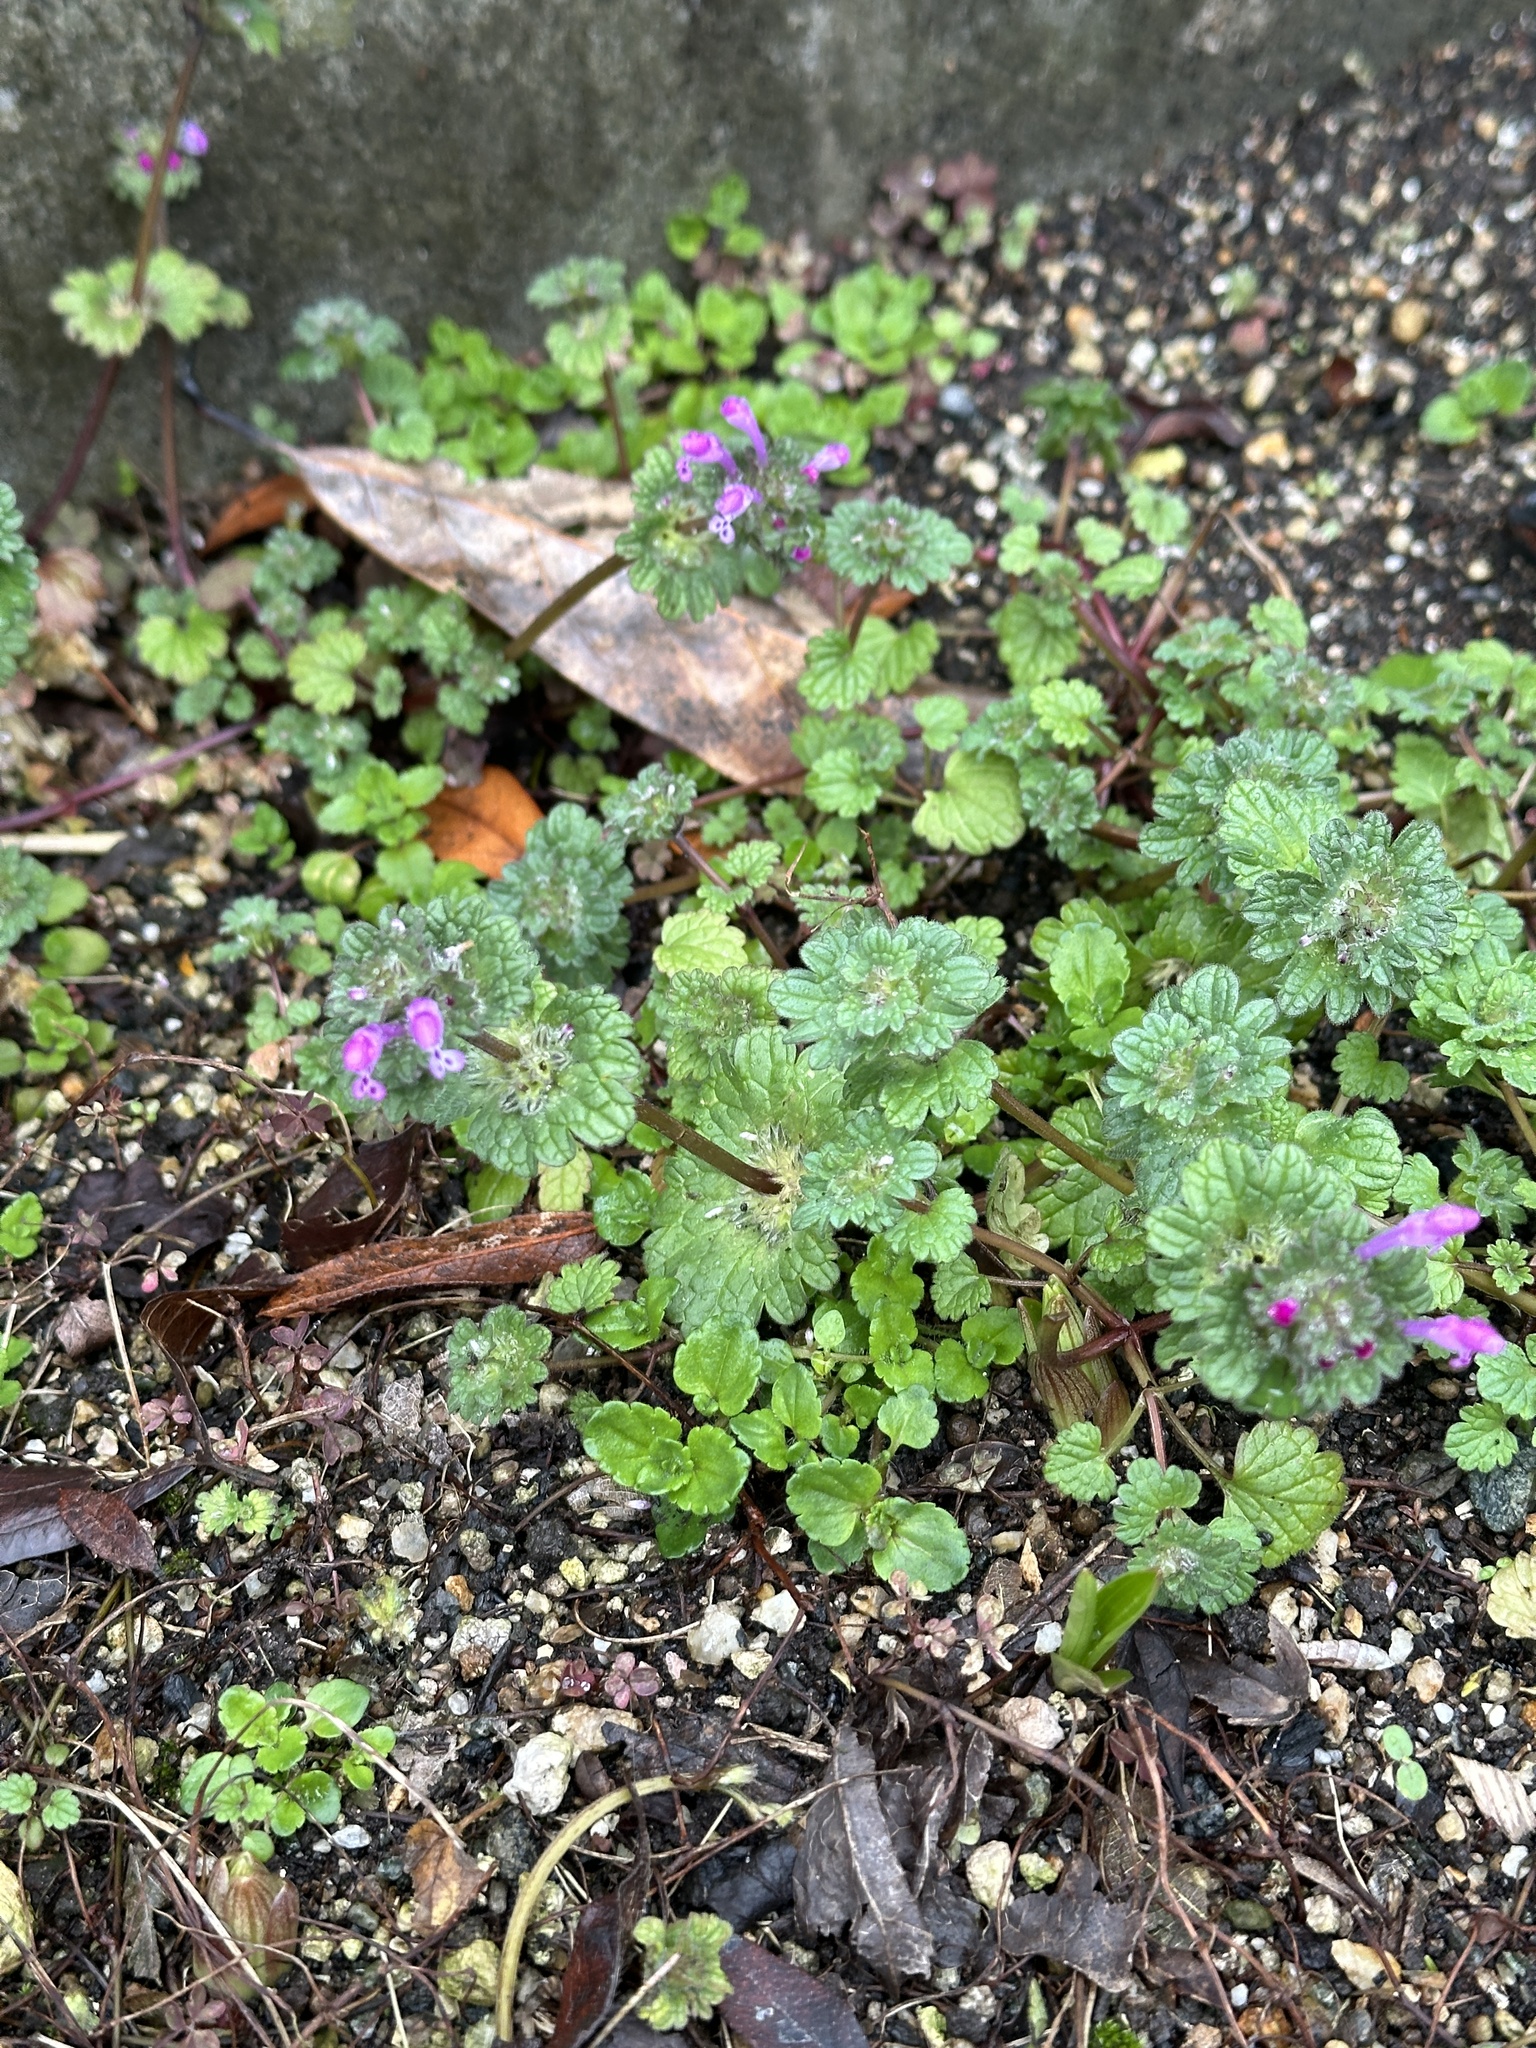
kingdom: Plantae
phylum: Tracheophyta
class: Magnoliopsida
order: Lamiales
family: Lamiaceae
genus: Lamium
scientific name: Lamium amplexicaule
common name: Henbit dead-nettle
